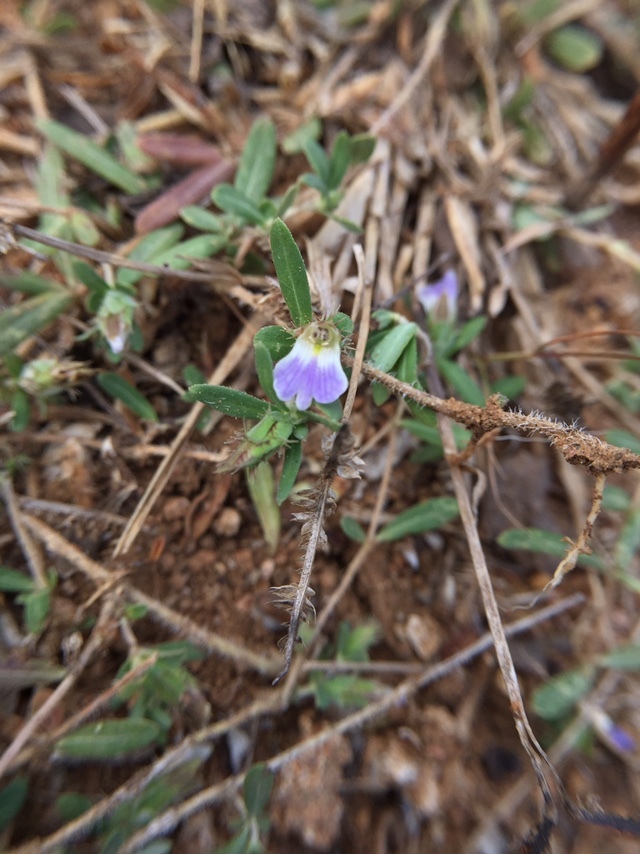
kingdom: Plantae
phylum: Tracheophyta
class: Magnoliopsida
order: Lamiales
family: Acanthaceae
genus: Blepharis
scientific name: Blepharis integrifolia
